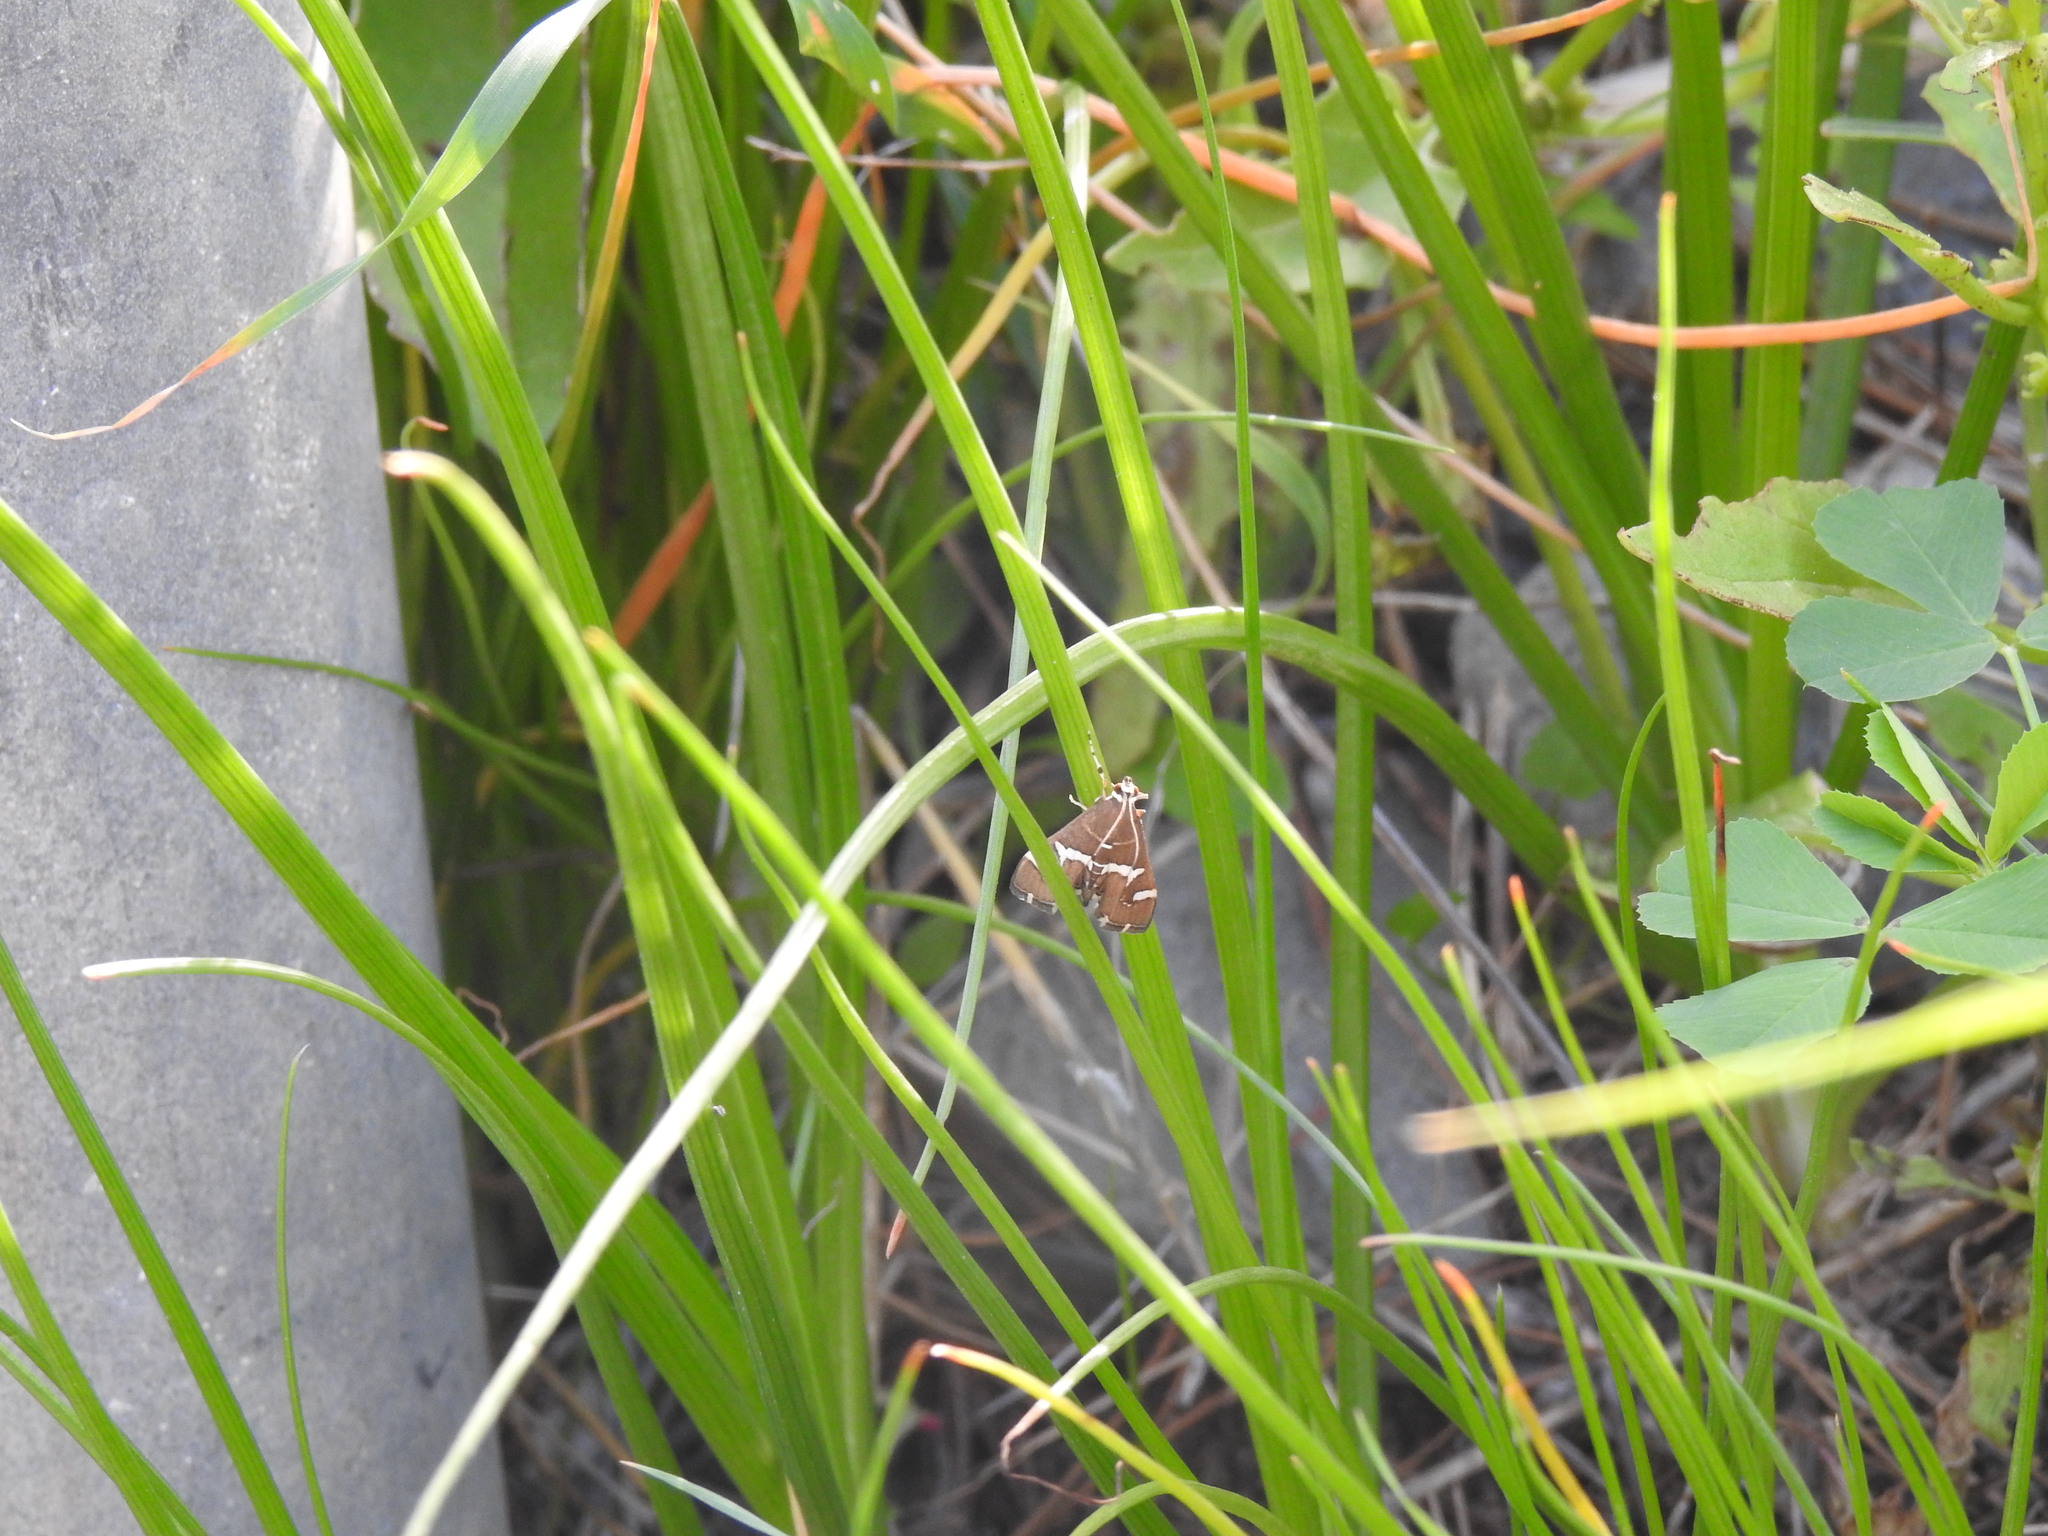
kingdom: Animalia
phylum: Arthropoda
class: Insecta
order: Lepidoptera
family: Crambidae
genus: Spoladea
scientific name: Spoladea recurvalis
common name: Beet webworm moth
